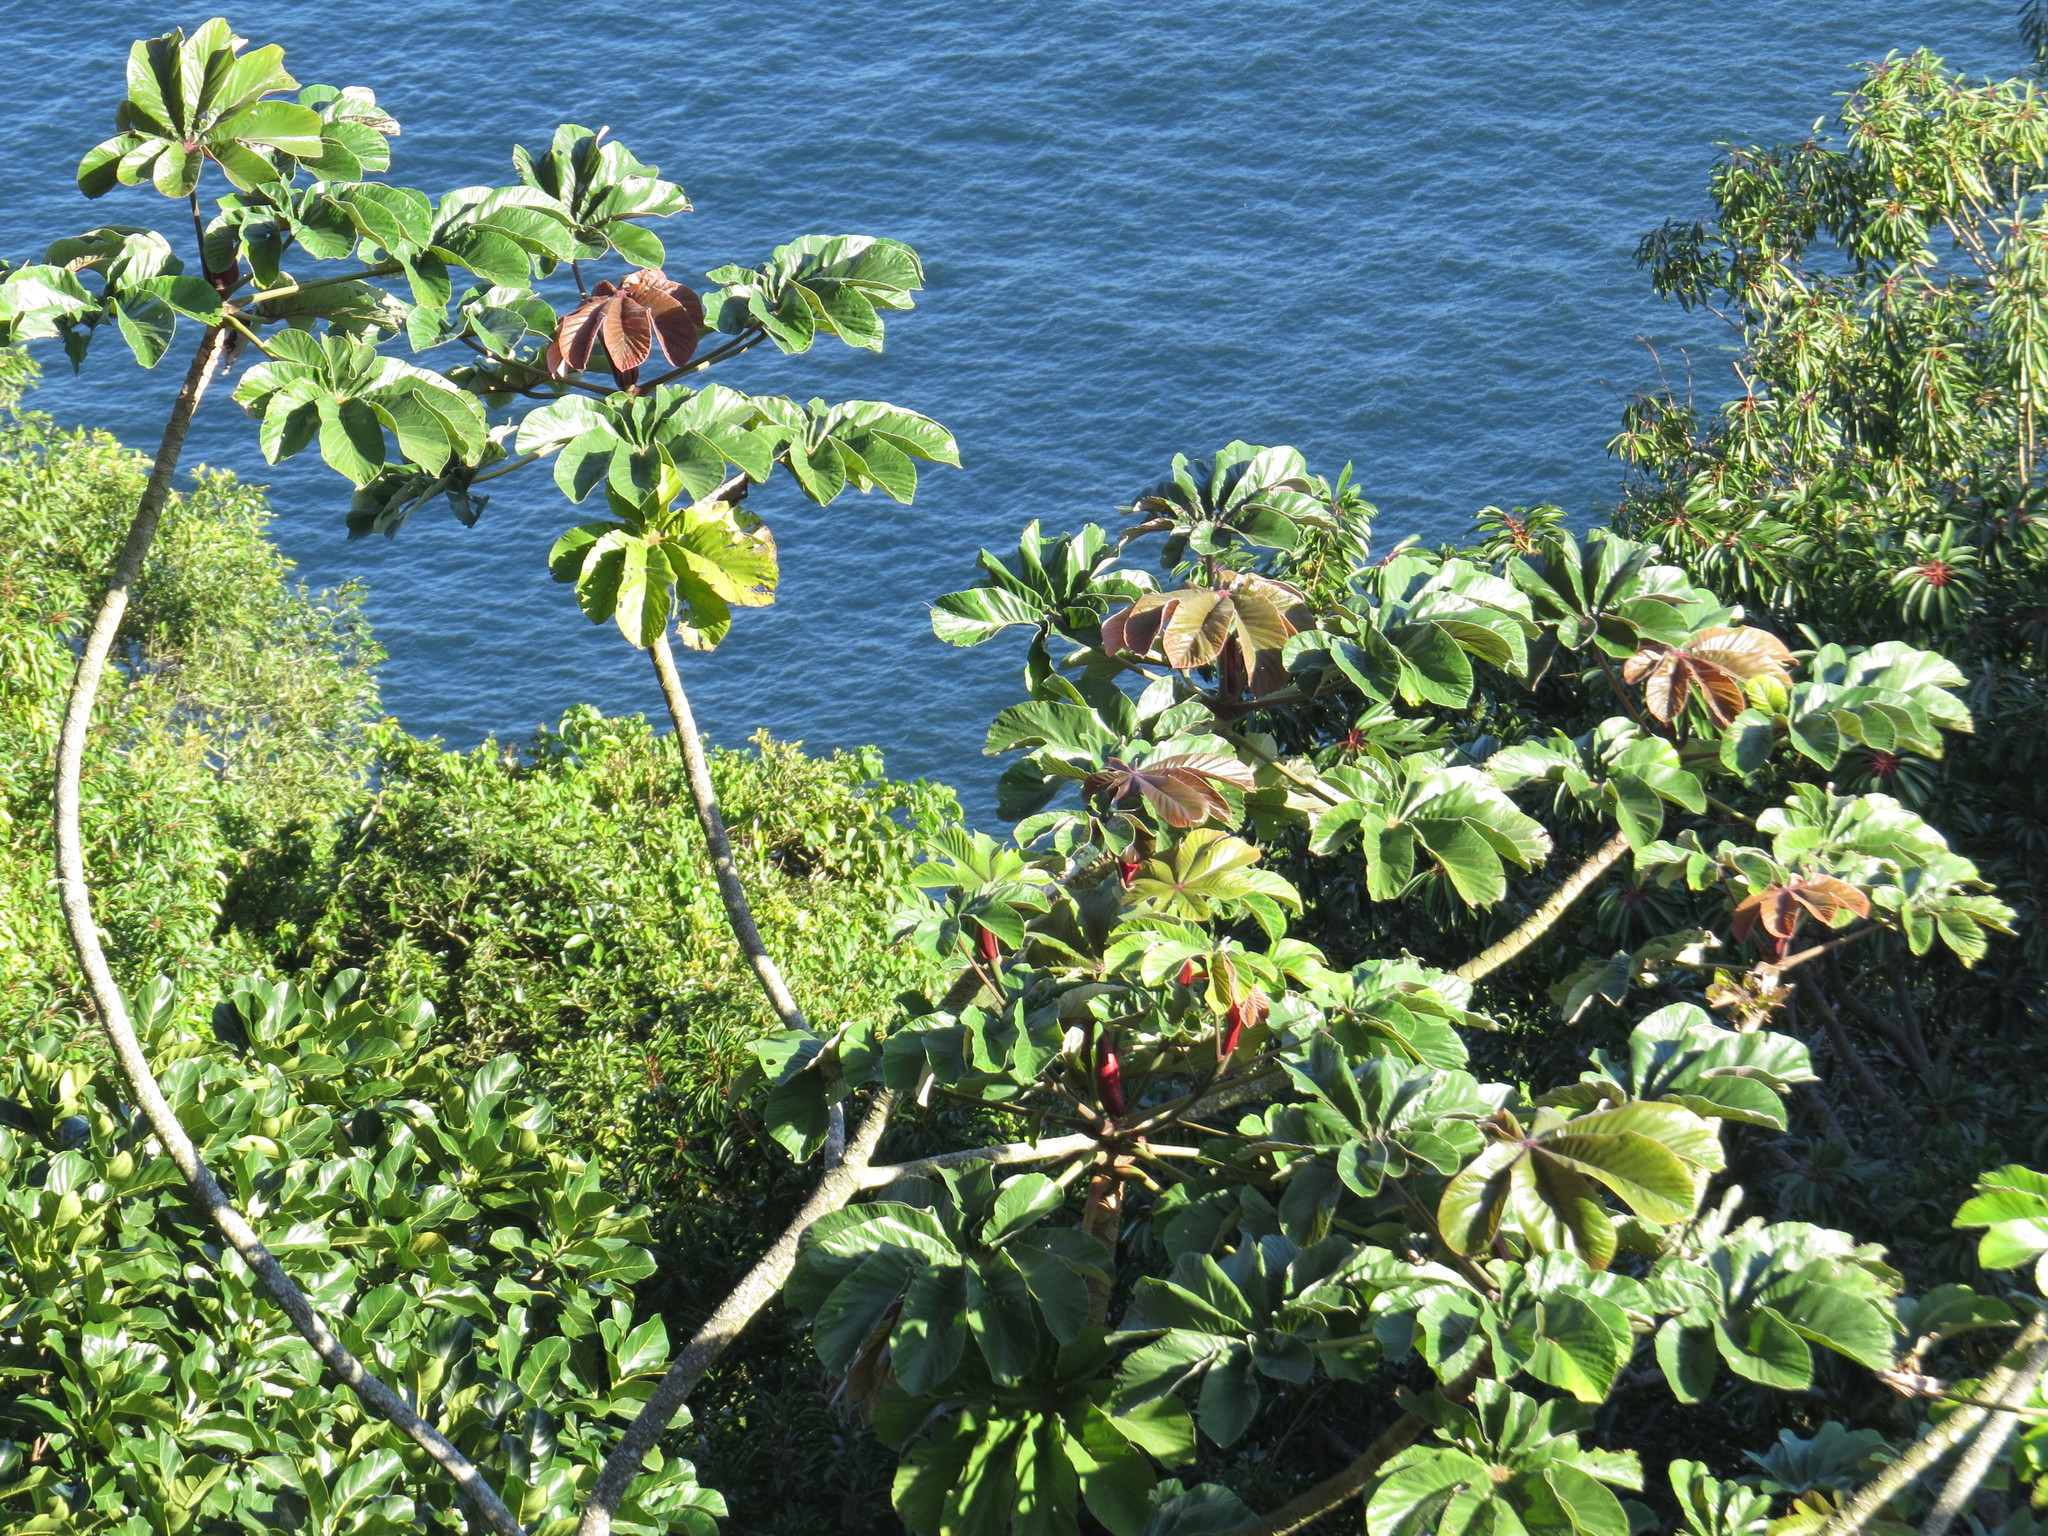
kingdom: Plantae
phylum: Tracheophyta
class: Magnoliopsida
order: Rosales
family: Urticaceae
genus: Cecropia
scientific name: Cecropia glaziovii
